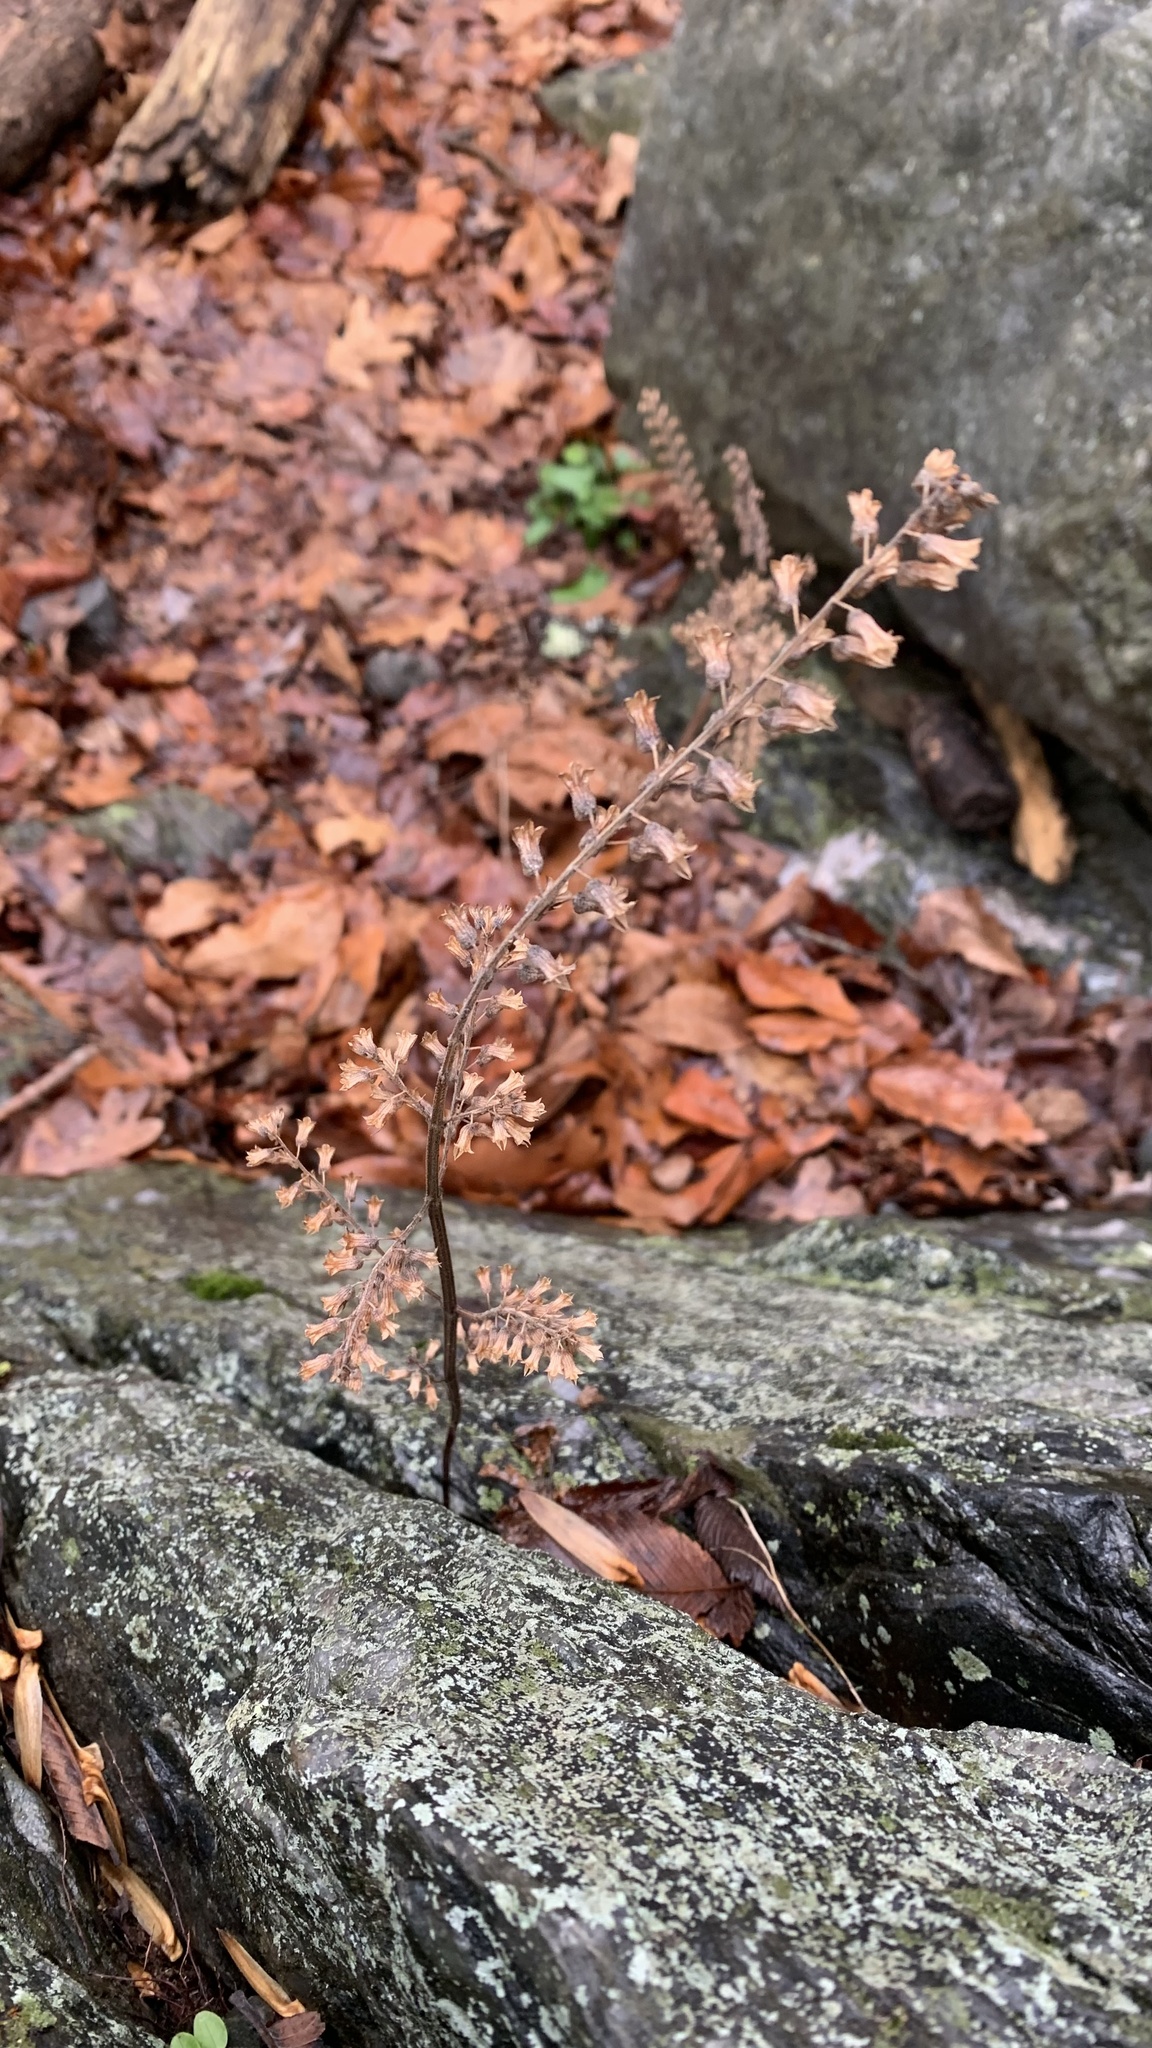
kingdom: Plantae
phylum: Tracheophyta
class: Magnoliopsida
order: Lamiales
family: Lamiaceae
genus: Perilla
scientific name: Perilla frutescens
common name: Perilla
